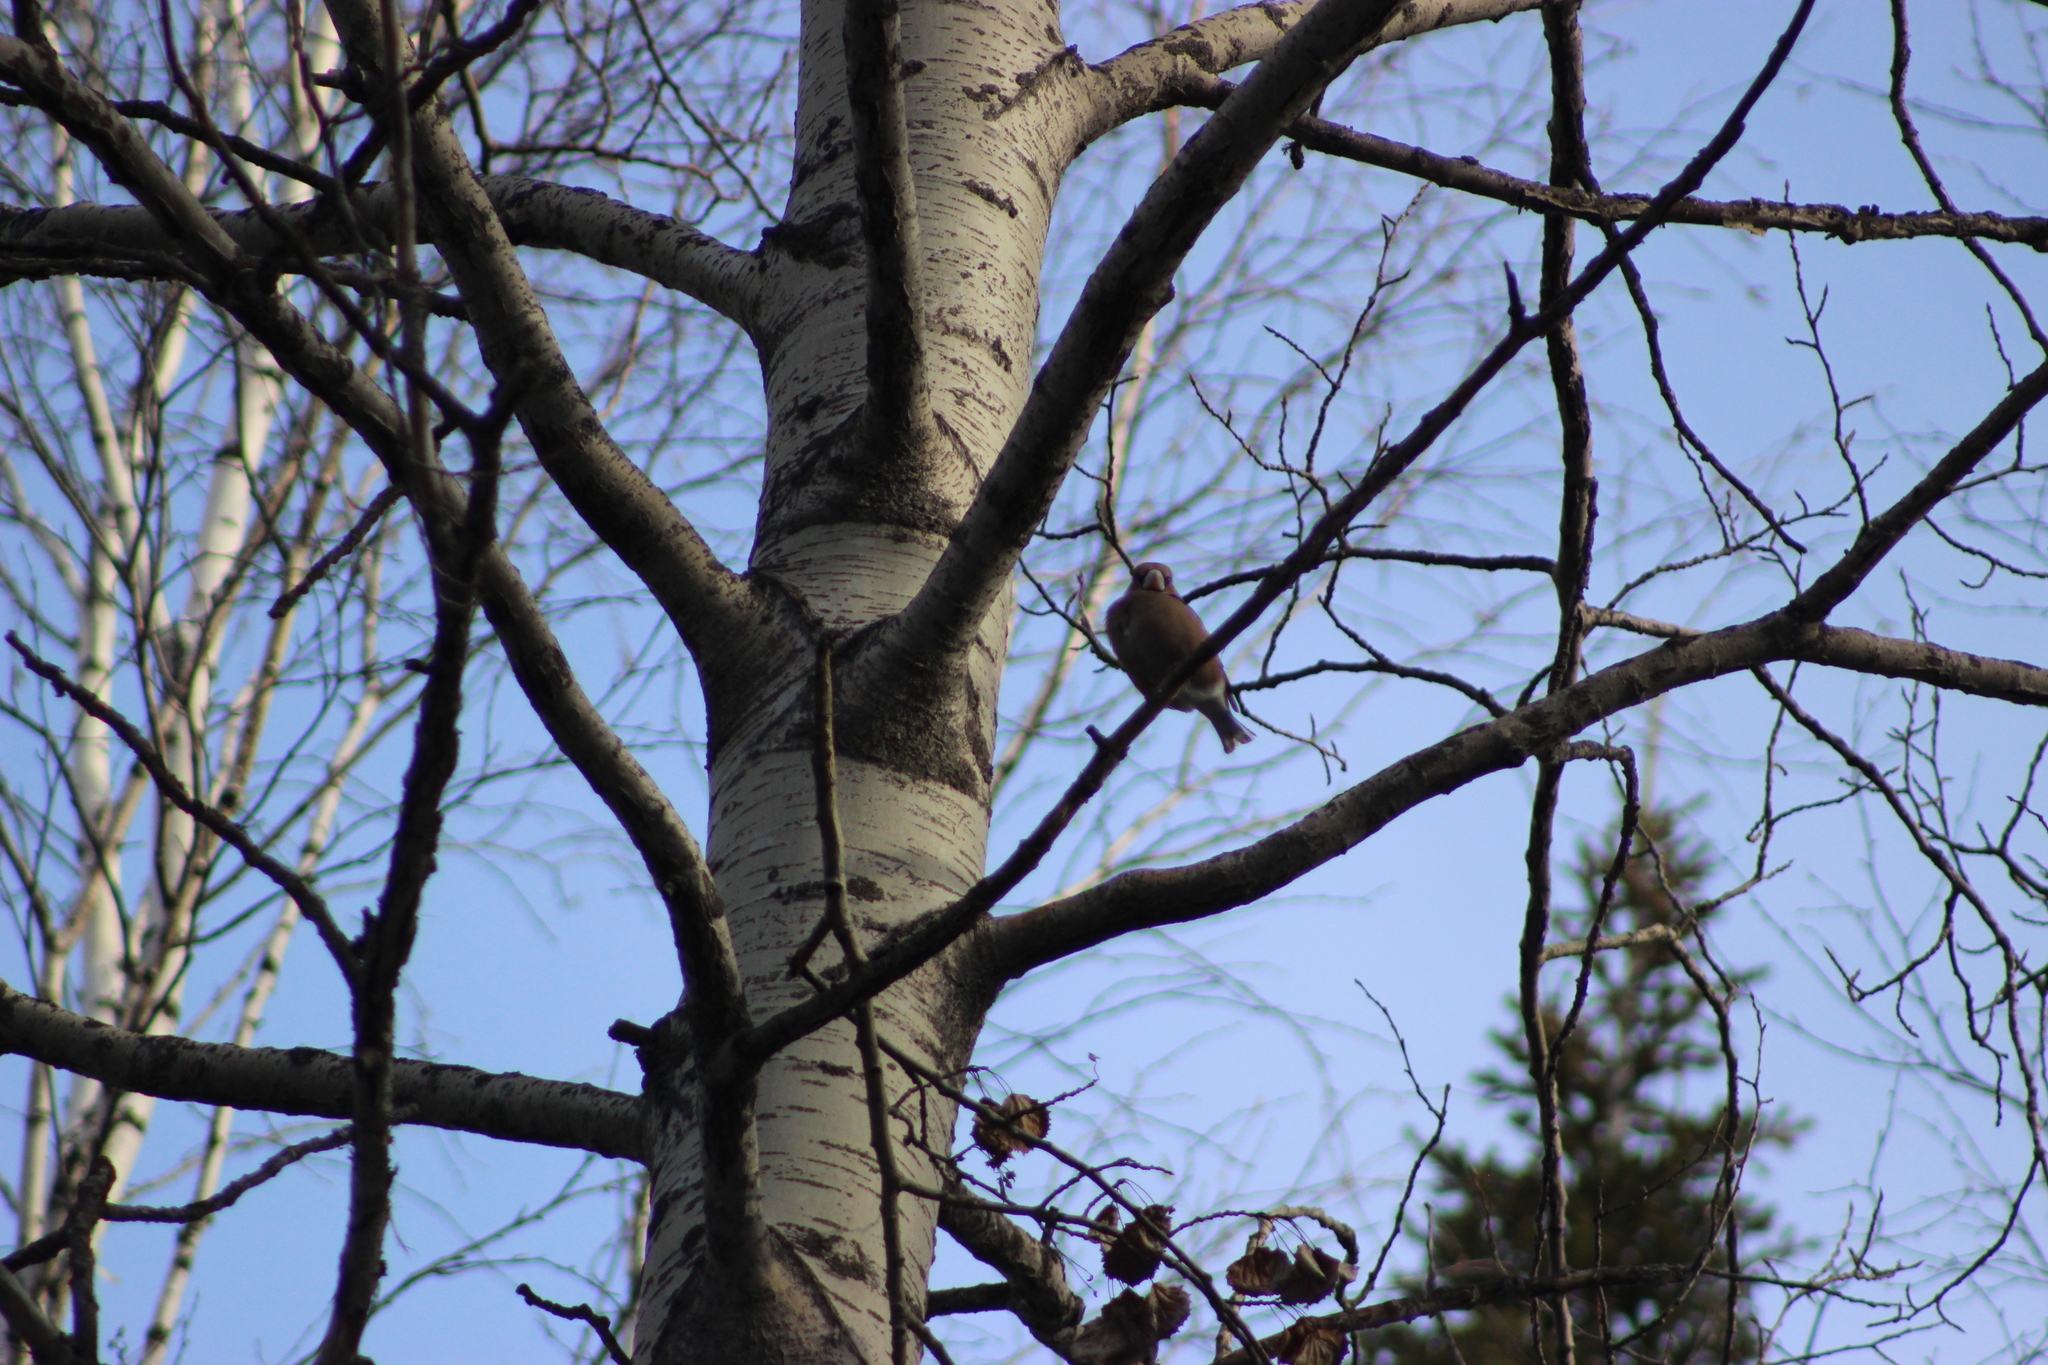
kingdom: Animalia
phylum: Chordata
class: Aves
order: Passeriformes
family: Fringillidae
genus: Coccothraustes
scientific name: Coccothraustes coccothraustes
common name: Hawfinch
